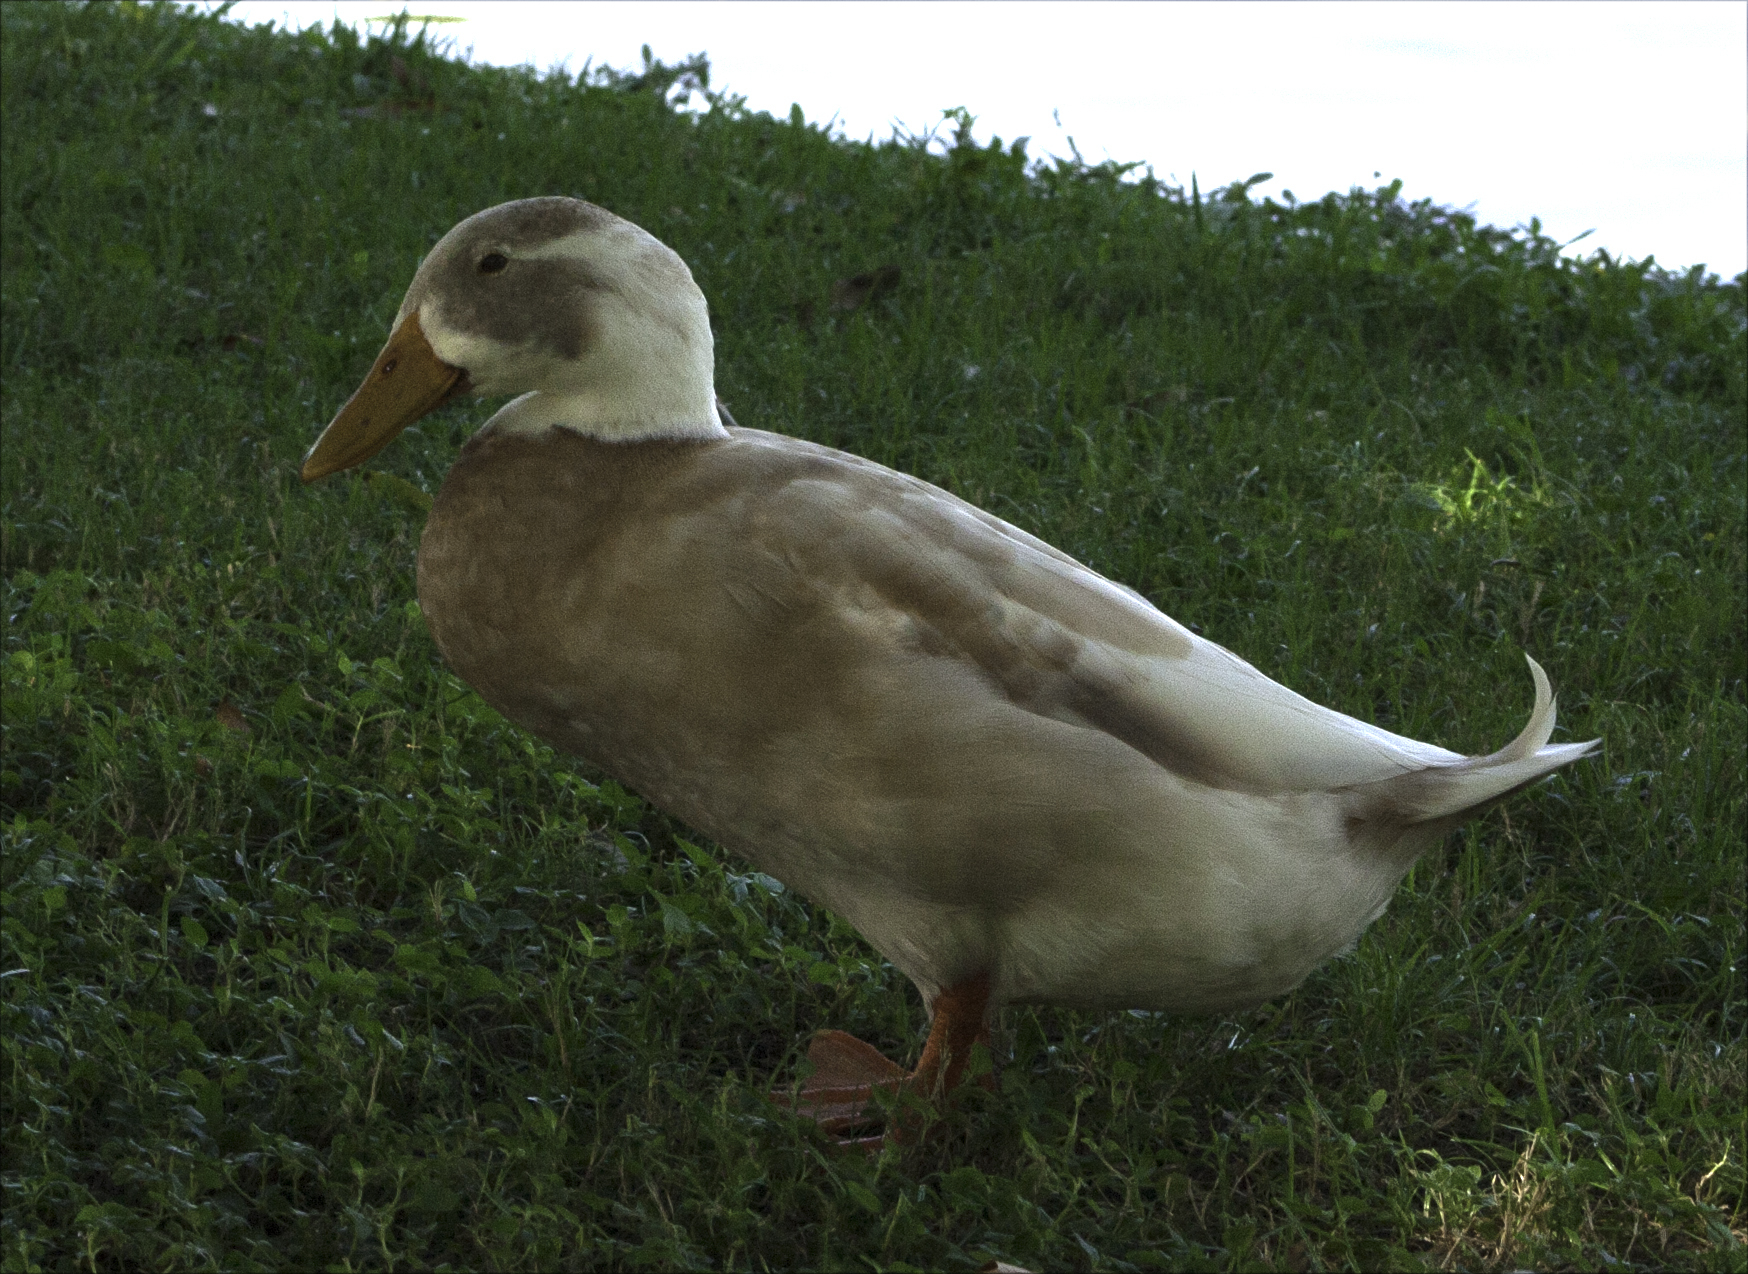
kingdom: Animalia
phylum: Chordata
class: Aves
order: Anseriformes
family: Anatidae
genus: Anas
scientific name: Anas platyrhynchos
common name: Mallard
